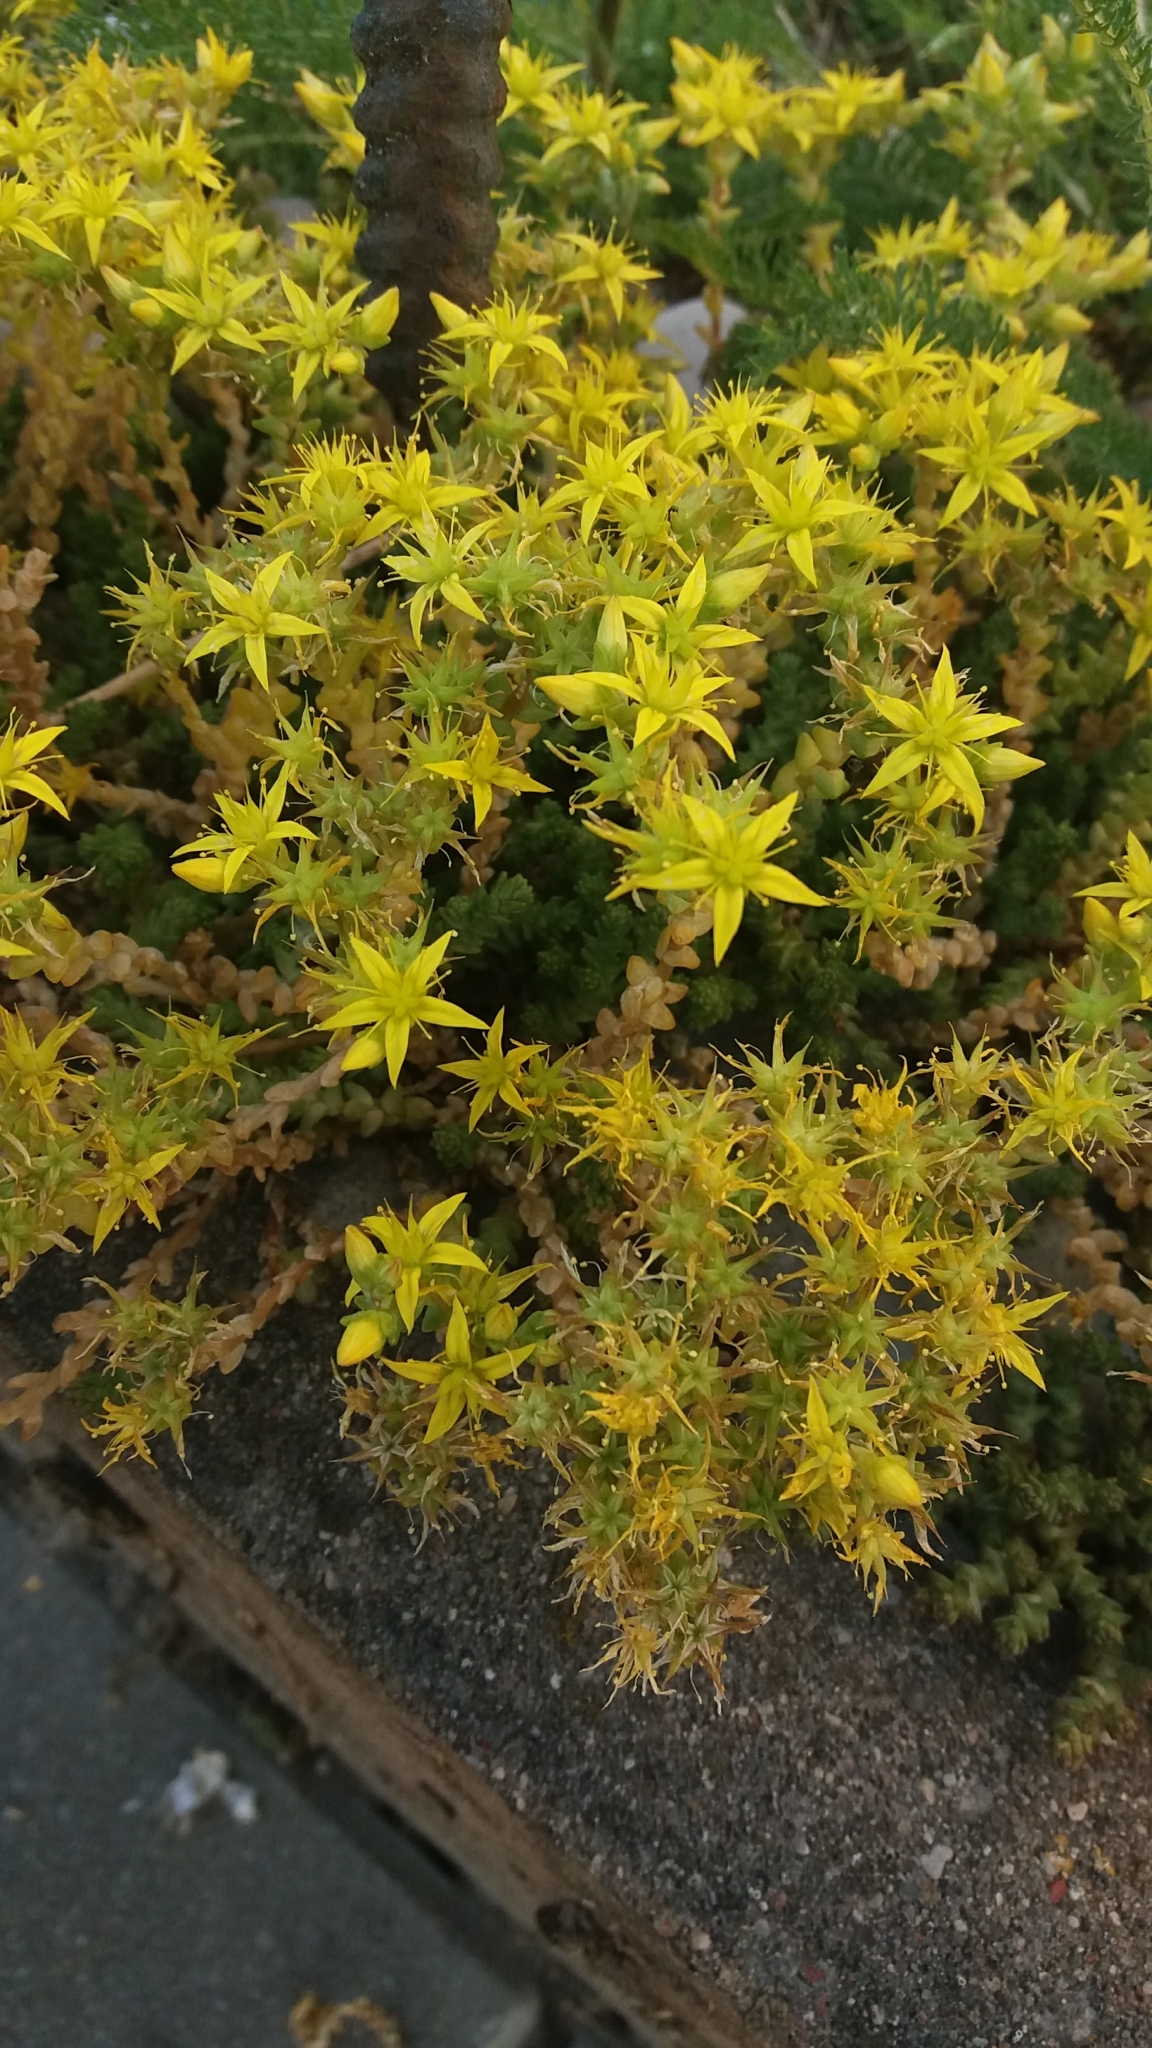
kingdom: Plantae
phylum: Tracheophyta
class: Magnoliopsida
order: Saxifragales
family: Crassulaceae
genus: Sedum
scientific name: Sedum acre
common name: Biting stonecrop
